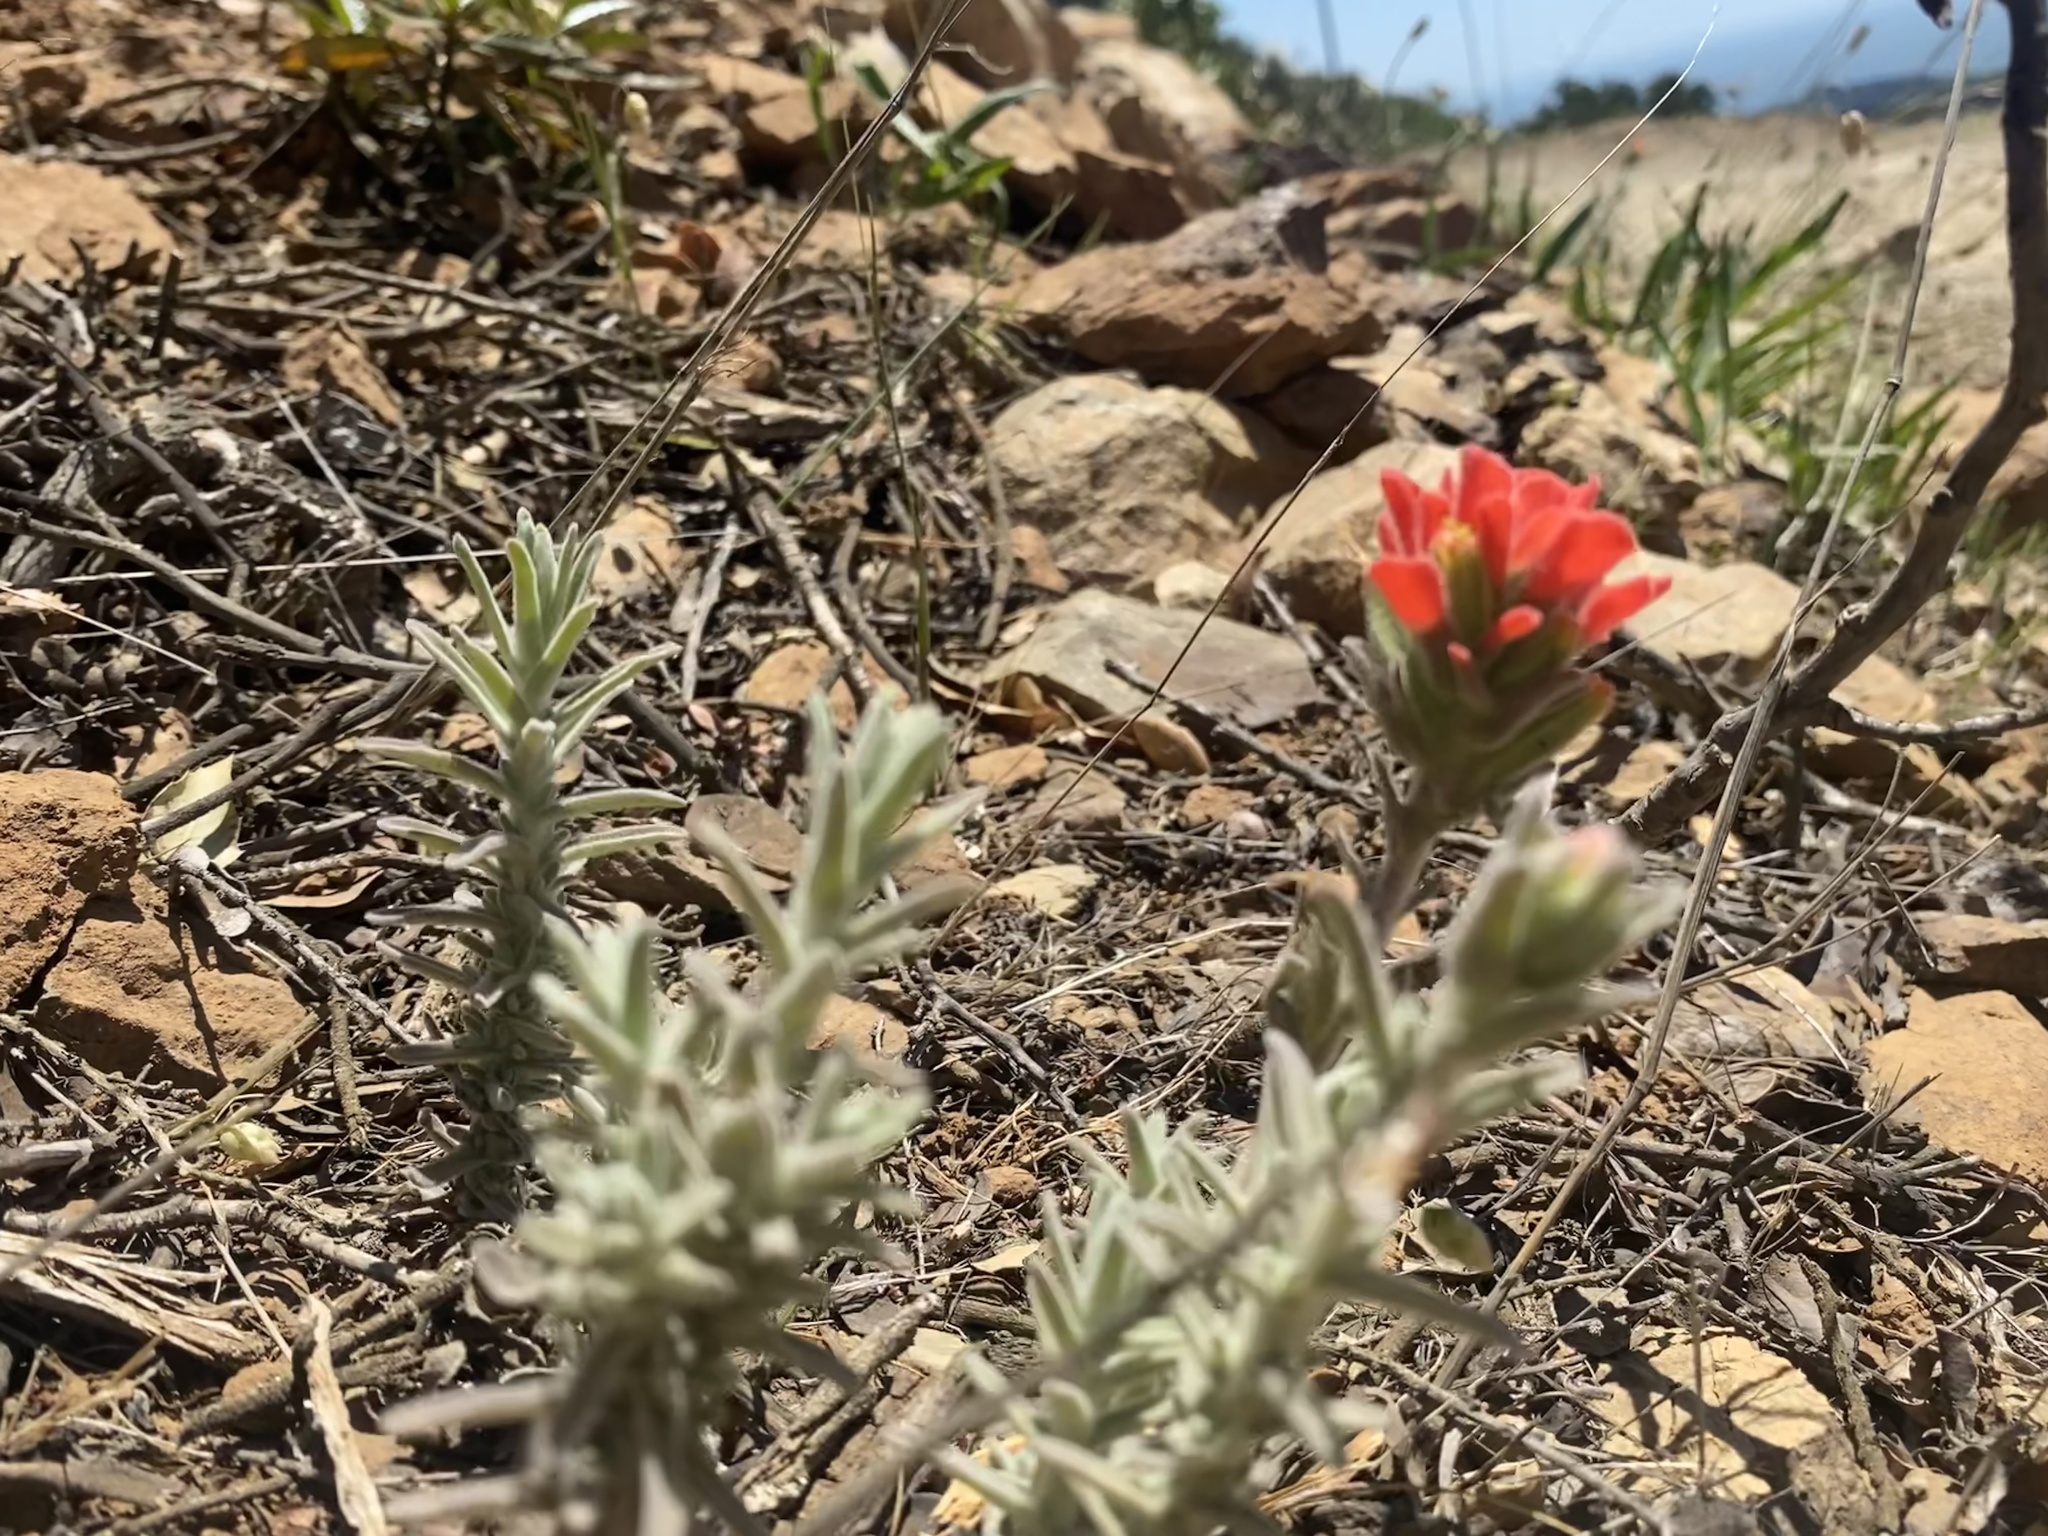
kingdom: Plantae
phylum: Tracheophyta
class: Magnoliopsida
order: Lamiales
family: Orobanchaceae
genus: Castilleja
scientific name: Castilleja foliolosa
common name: Woolly indian paintbrush
